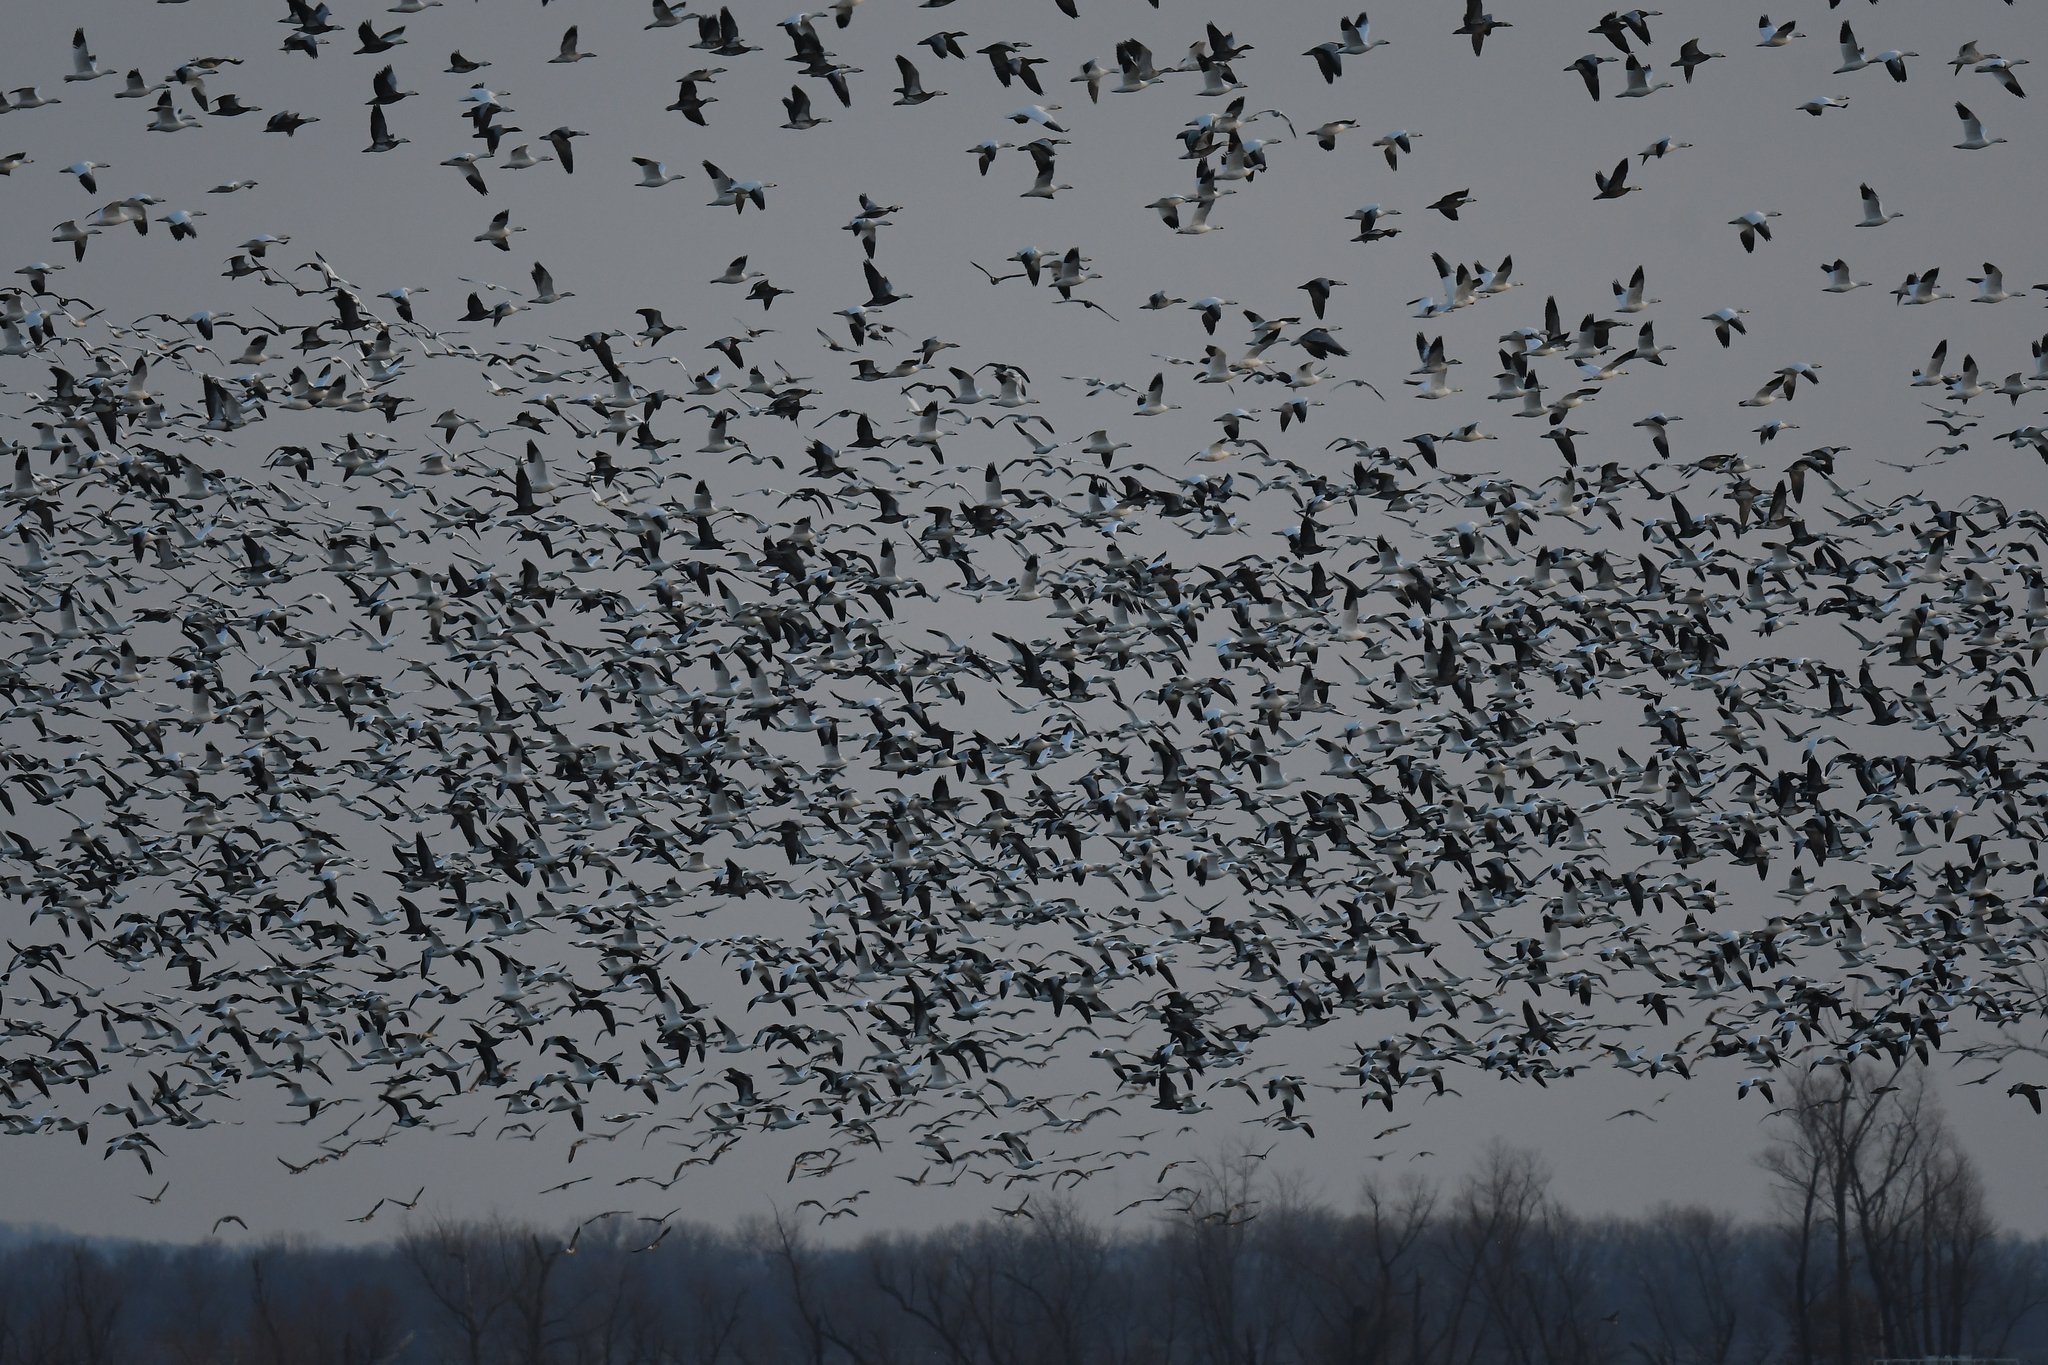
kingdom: Animalia
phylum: Chordata
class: Aves
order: Anseriformes
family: Anatidae
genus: Anser
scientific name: Anser caerulescens
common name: Snow goose
